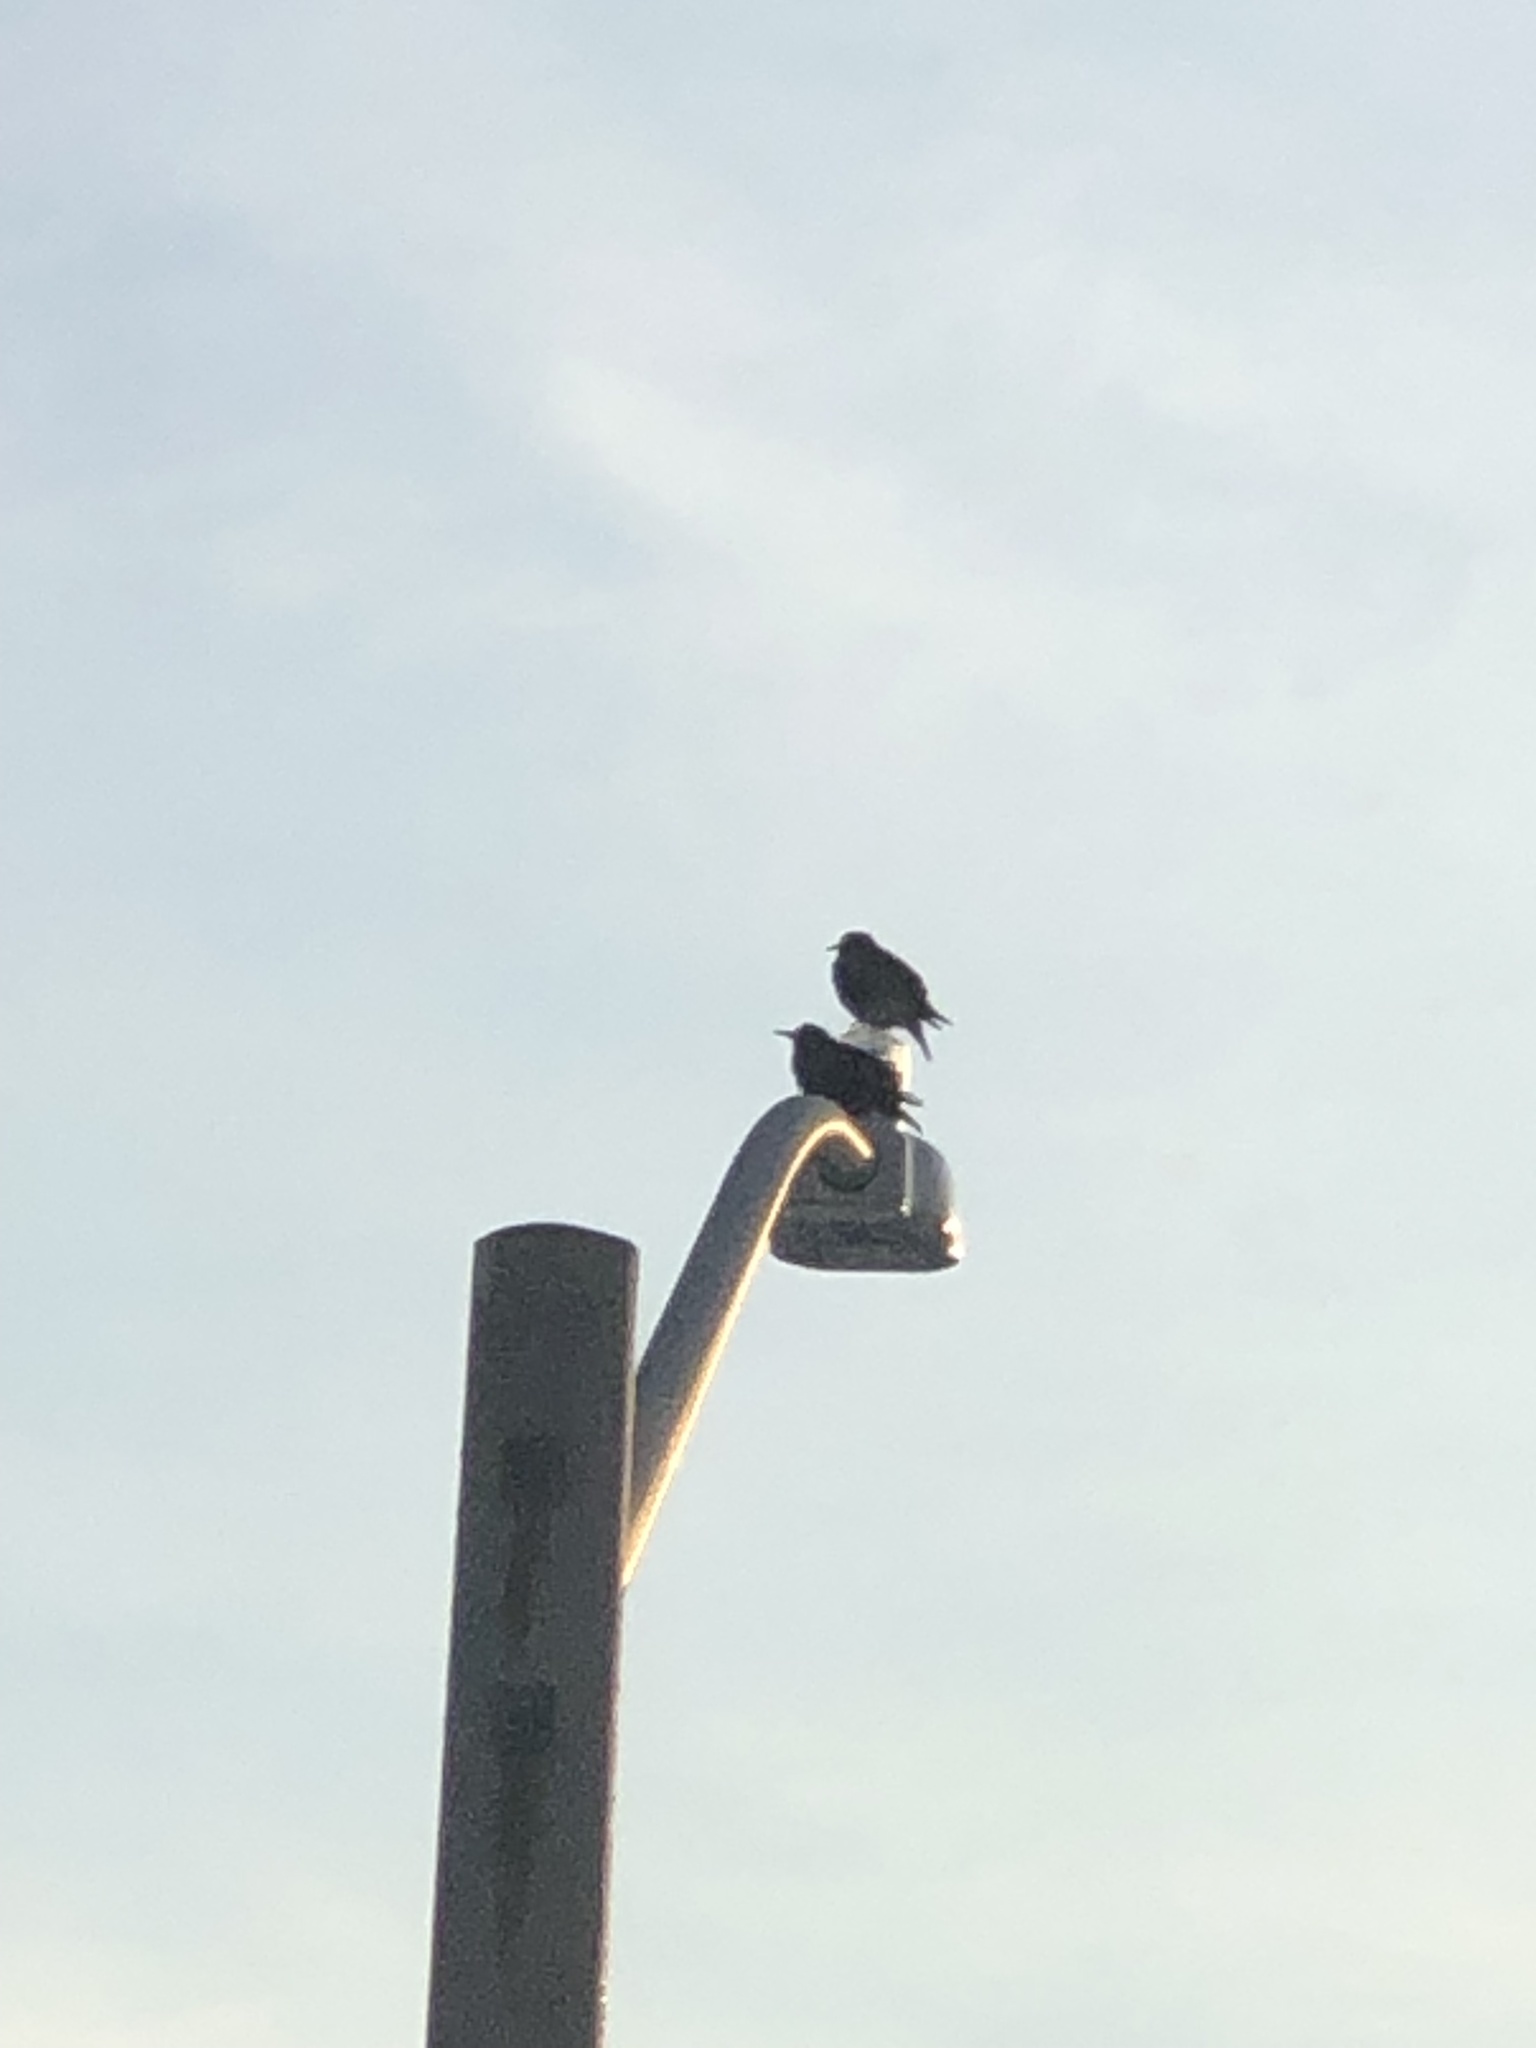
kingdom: Animalia
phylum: Chordata
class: Aves
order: Passeriformes
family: Sturnidae
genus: Sturnus
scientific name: Sturnus vulgaris
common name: Common starling
